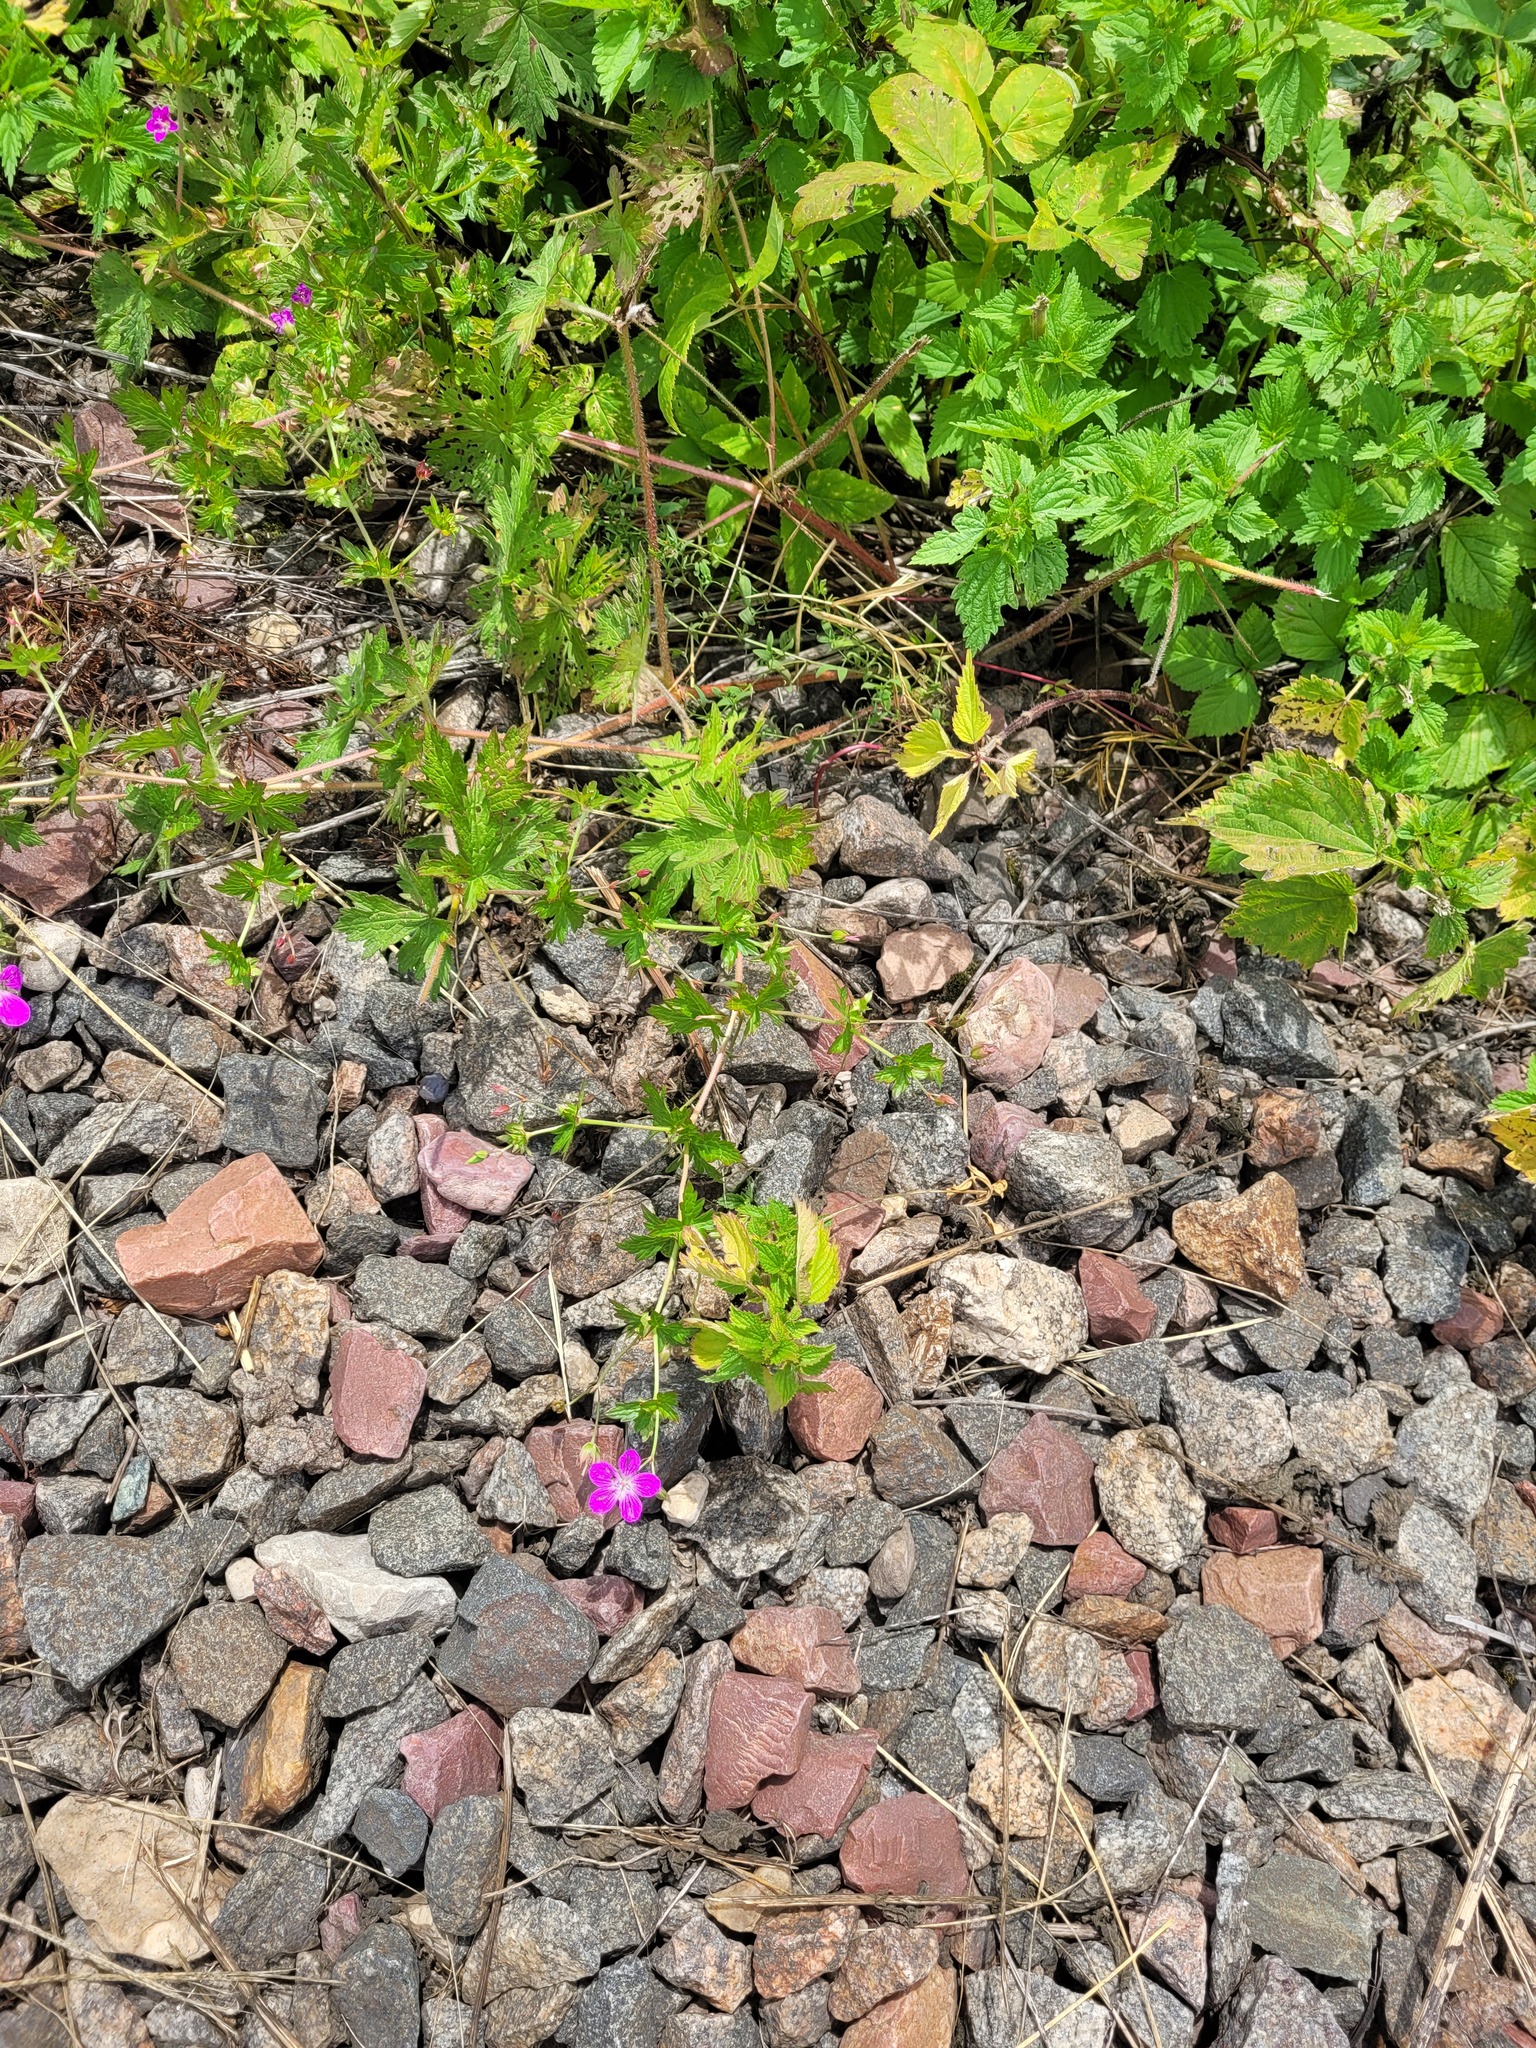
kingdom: Plantae
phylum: Tracheophyta
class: Magnoliopsida
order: Geraniales
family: Geraniaceae
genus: Geranium
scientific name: Geranium palustre
